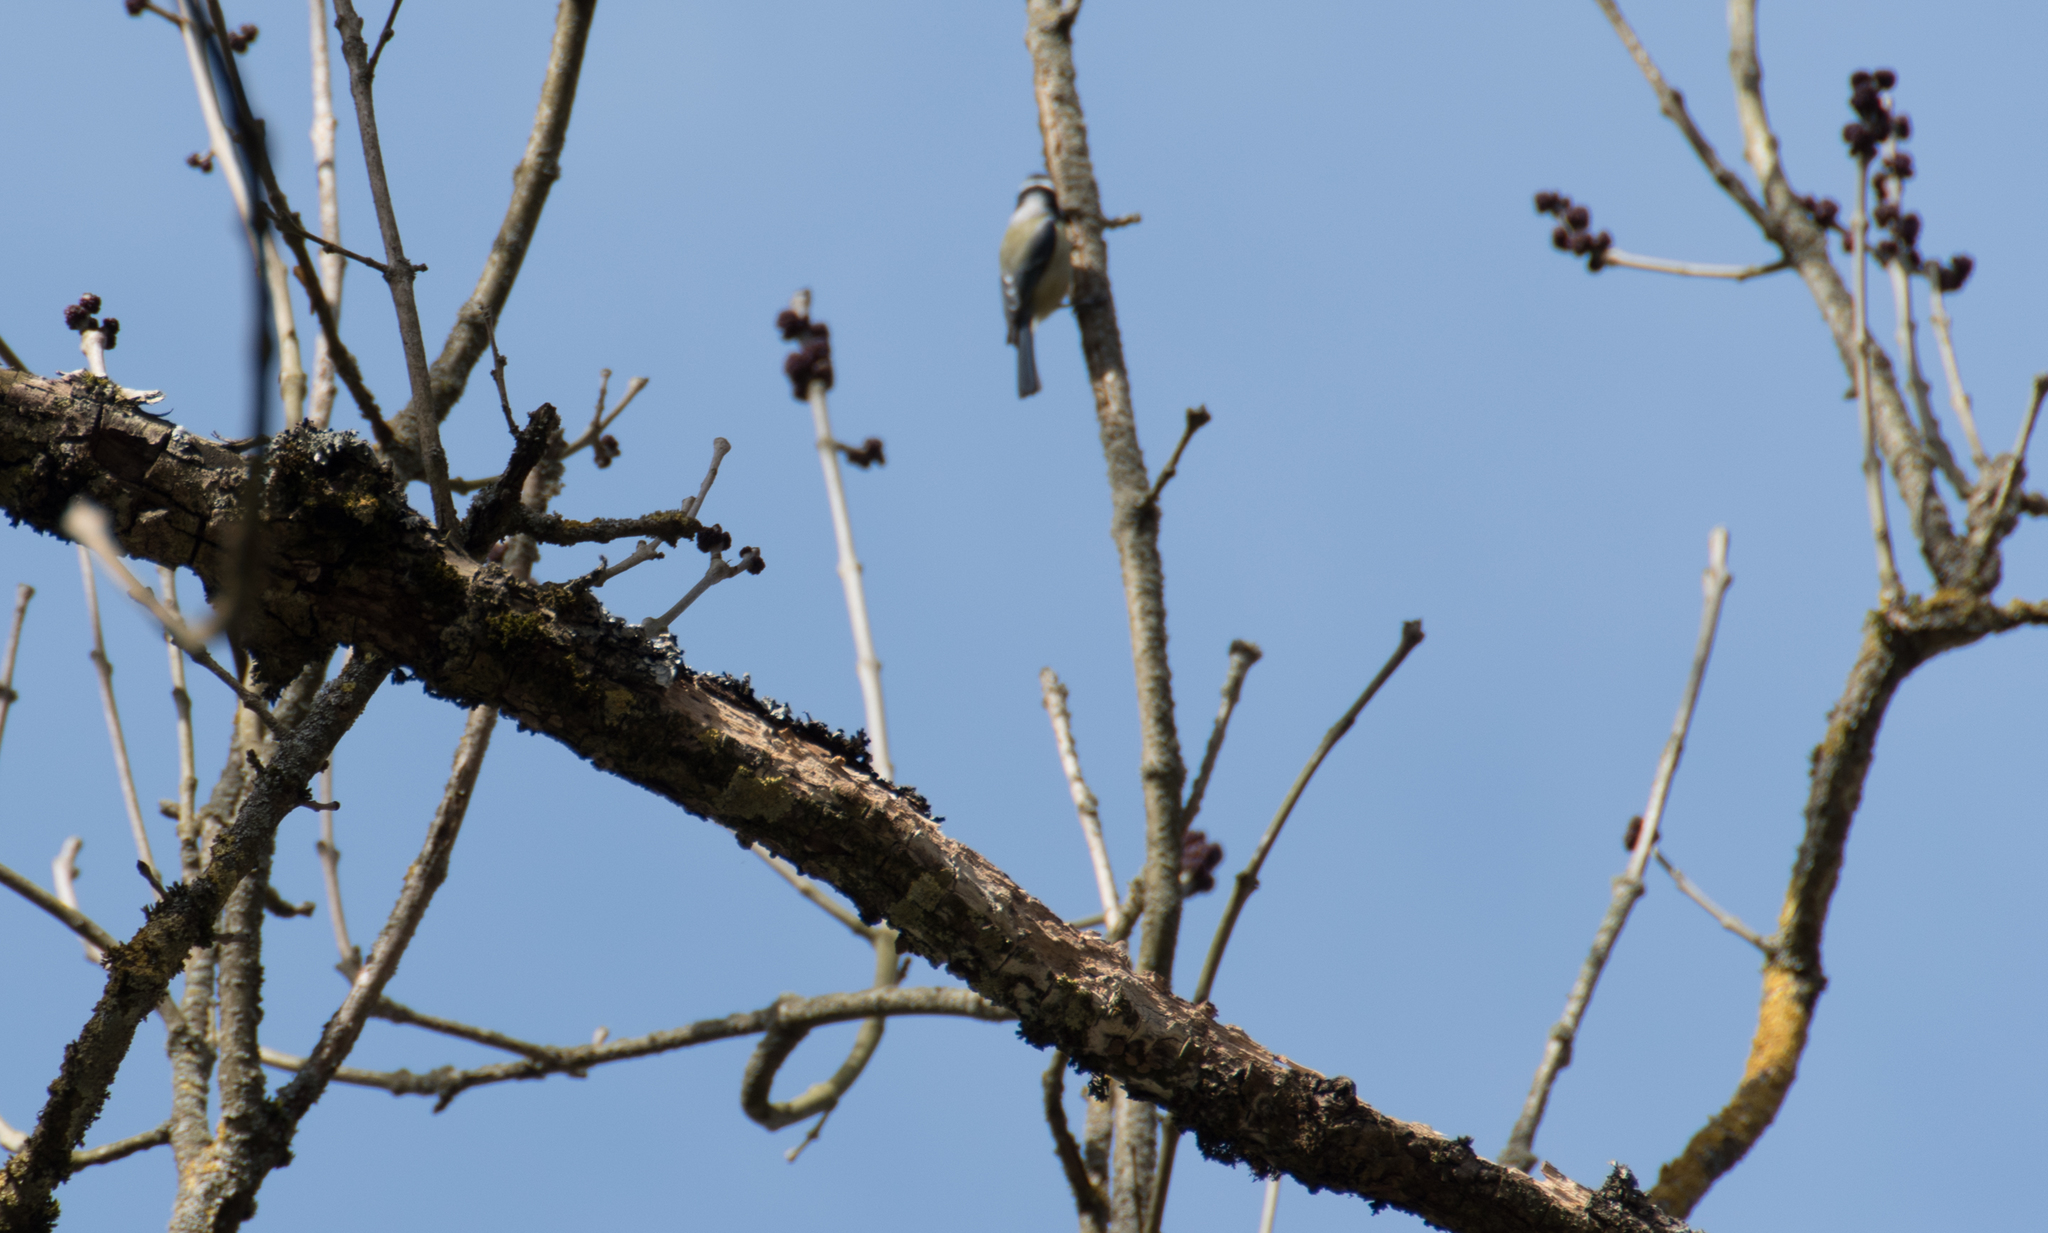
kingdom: Animalia
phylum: Chordata
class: Aves
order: Passeriformes
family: Paridae
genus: Cyanistes
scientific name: Cyanistes caeruleus
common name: Eurasian blue tit
